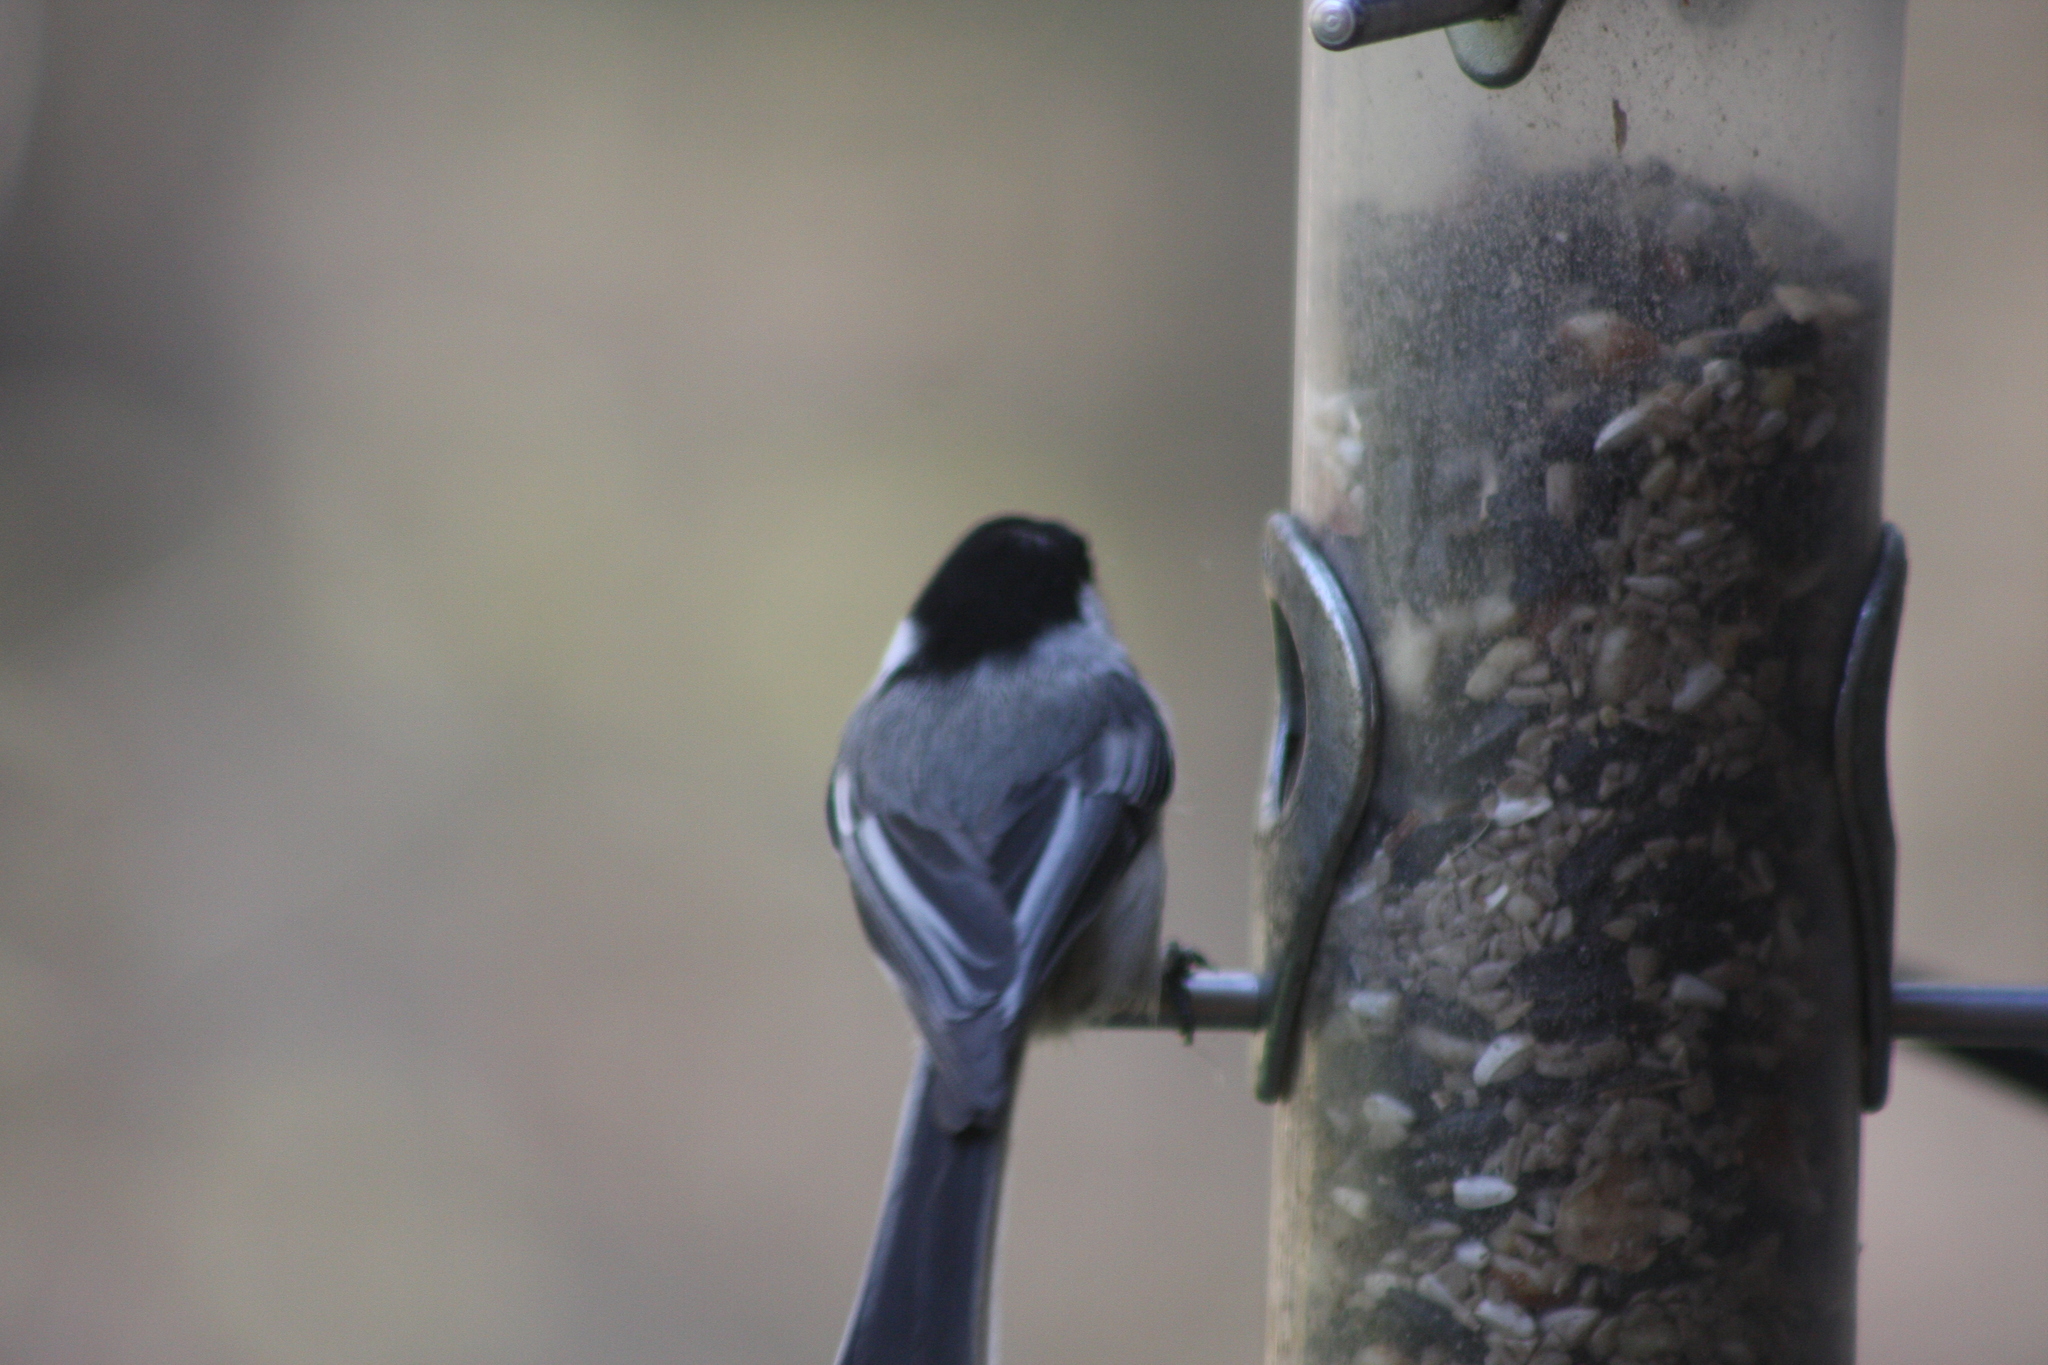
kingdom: Animalia
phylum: Chordata
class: Aves
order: Passeriformes
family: Paridae
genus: Poecile
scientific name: Poecile atricapillus
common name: Black-capped chickadee
